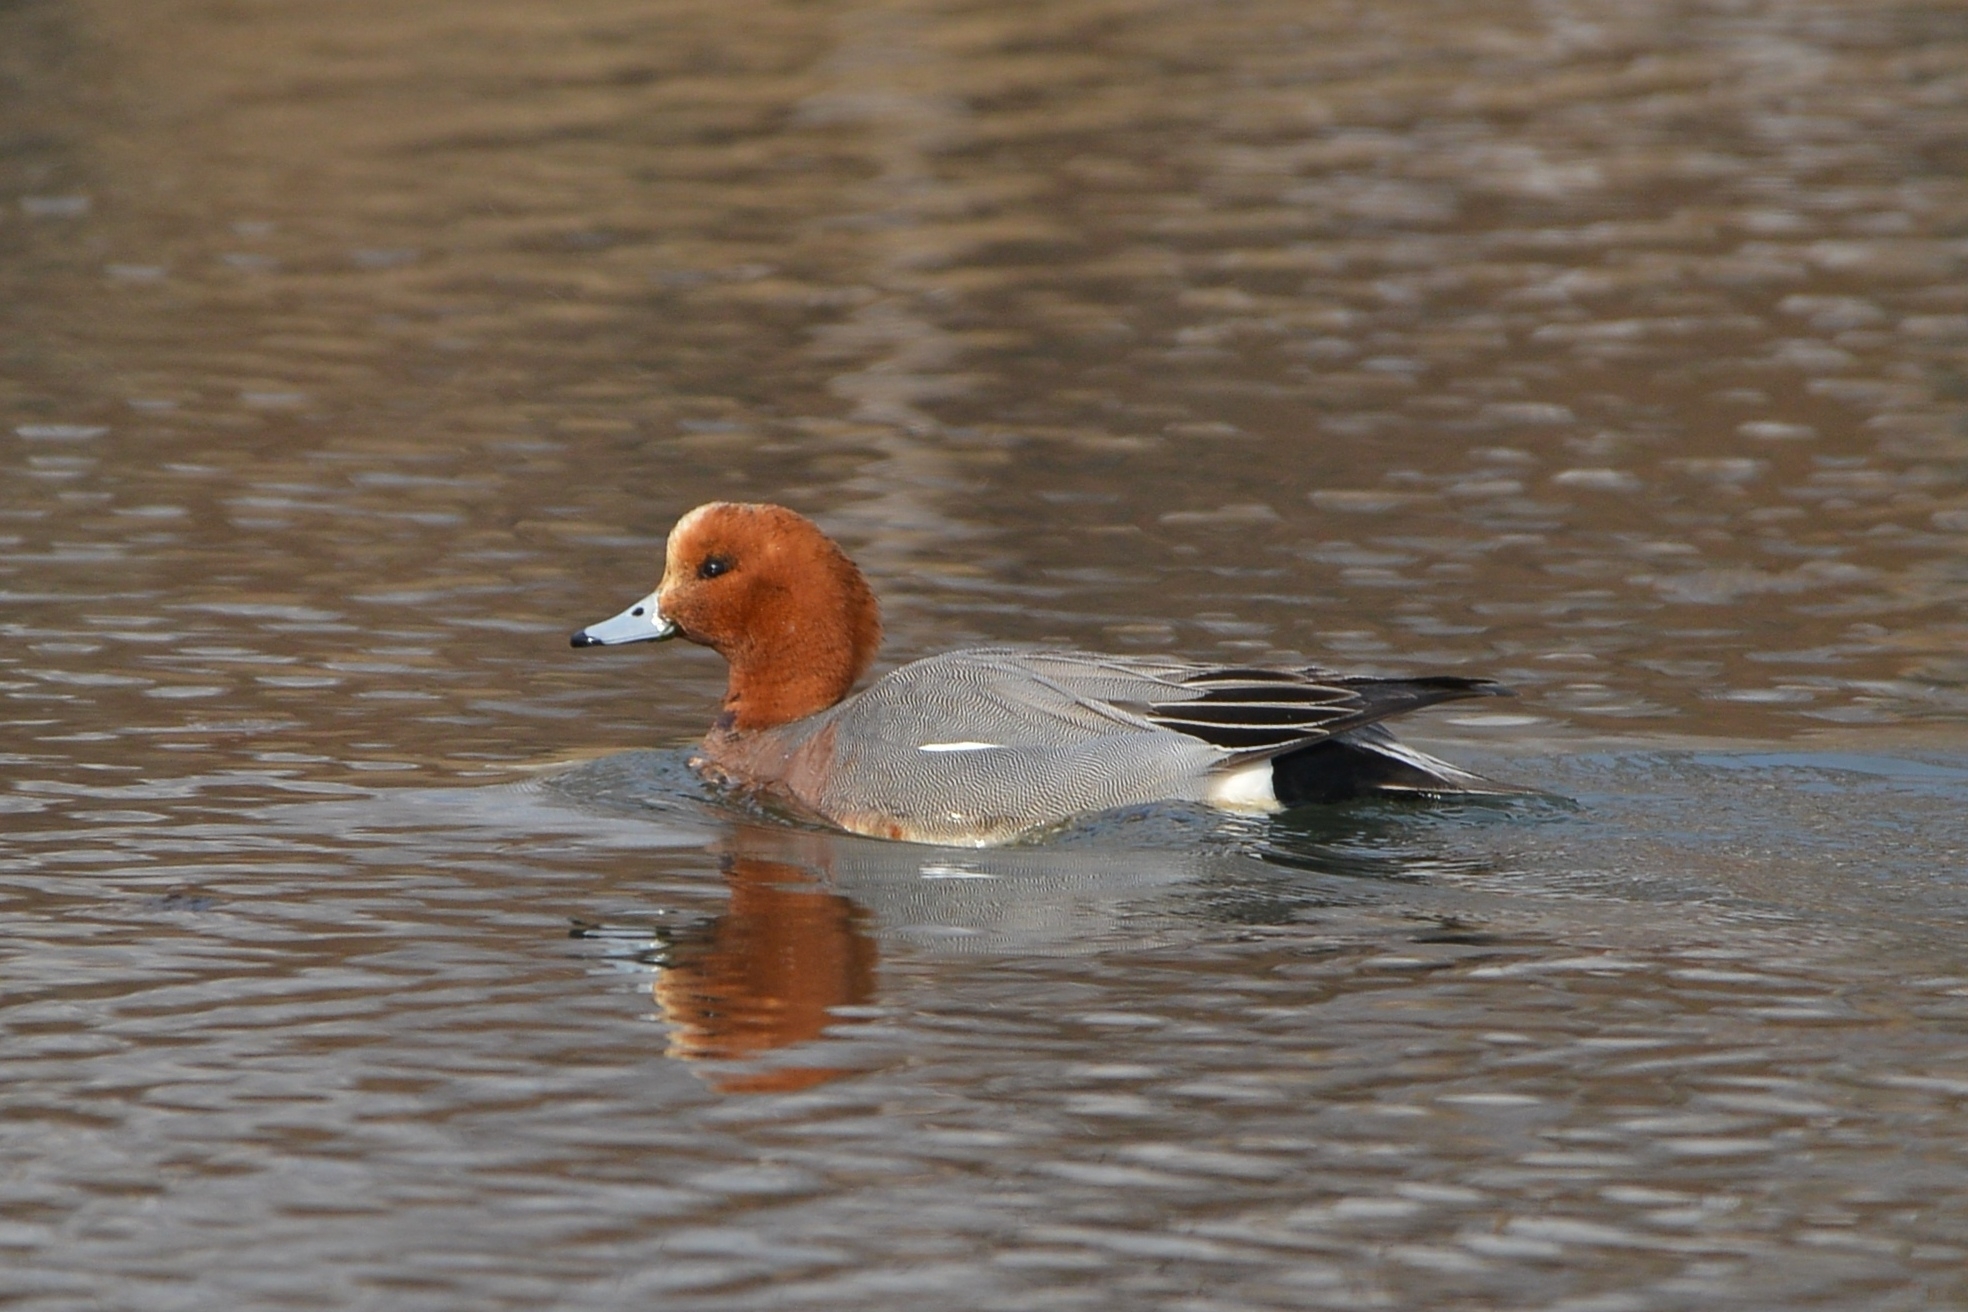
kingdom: Animalia
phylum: Chordata
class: Aves
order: Anseriformes
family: Anatidae
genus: Mareca
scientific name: Mareca penelope
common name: Eurasian wigeon
